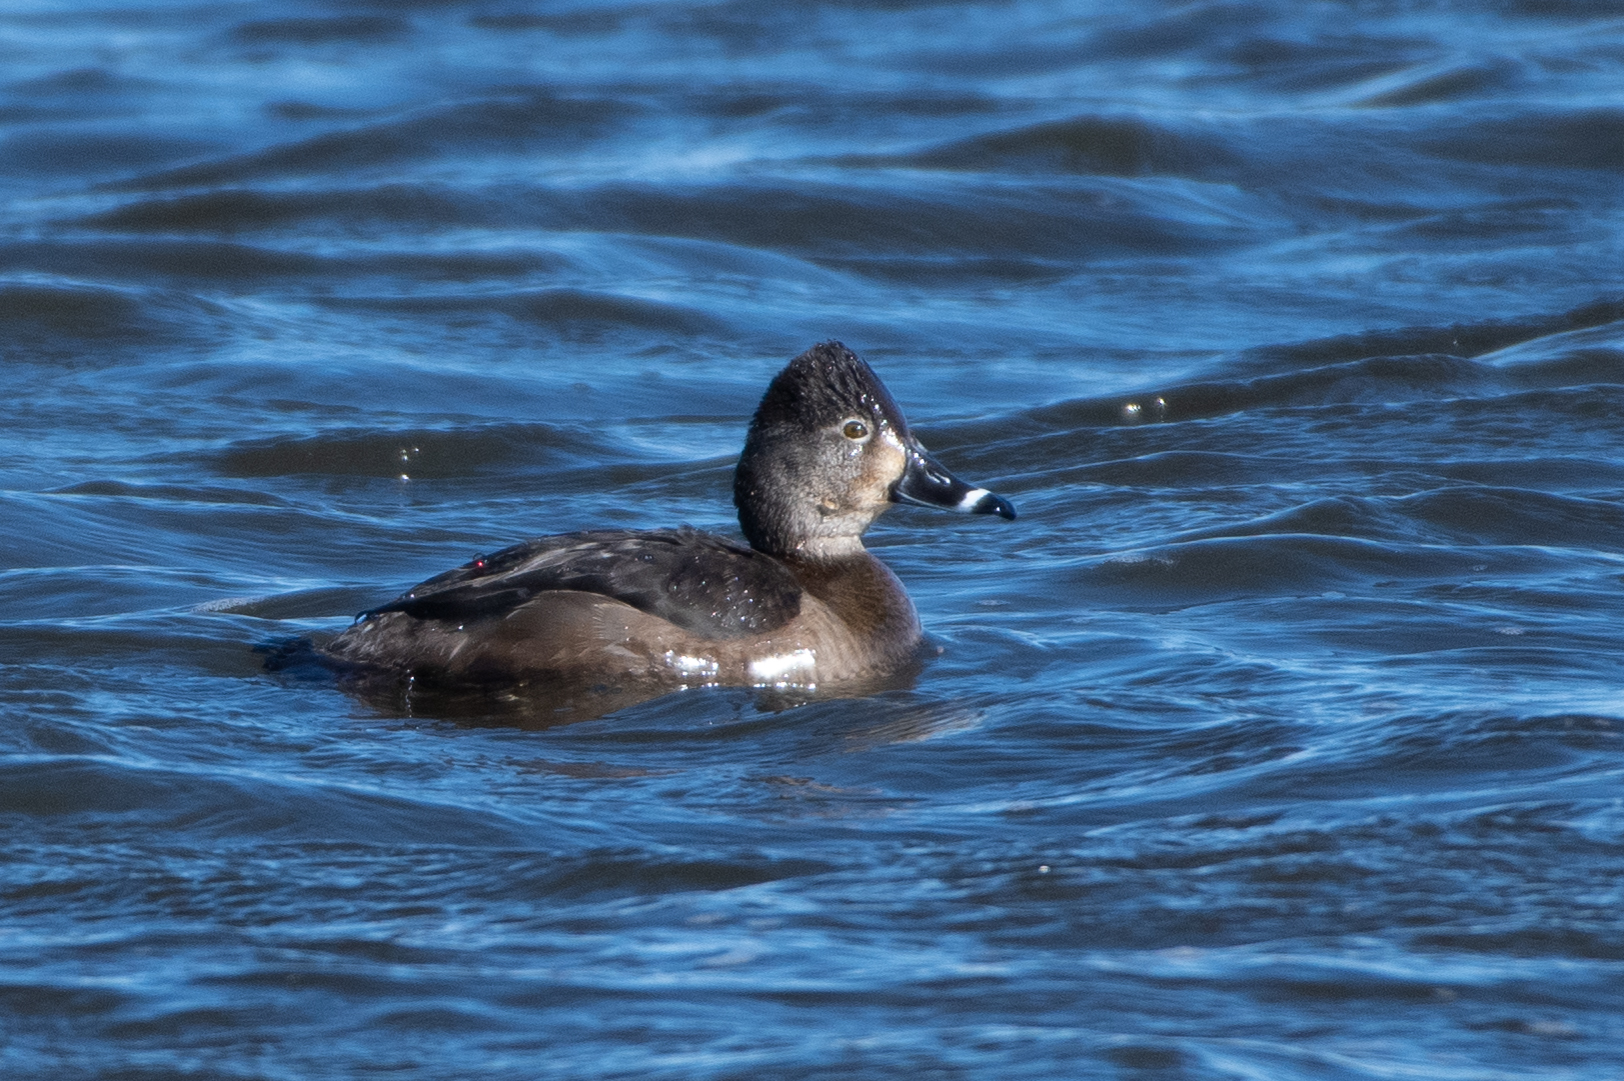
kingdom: Animalia
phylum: Chordata
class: Aves
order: Anseriformes
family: Anatidae
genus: Aythya
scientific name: Aythya collaris
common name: Ring-necked duck
